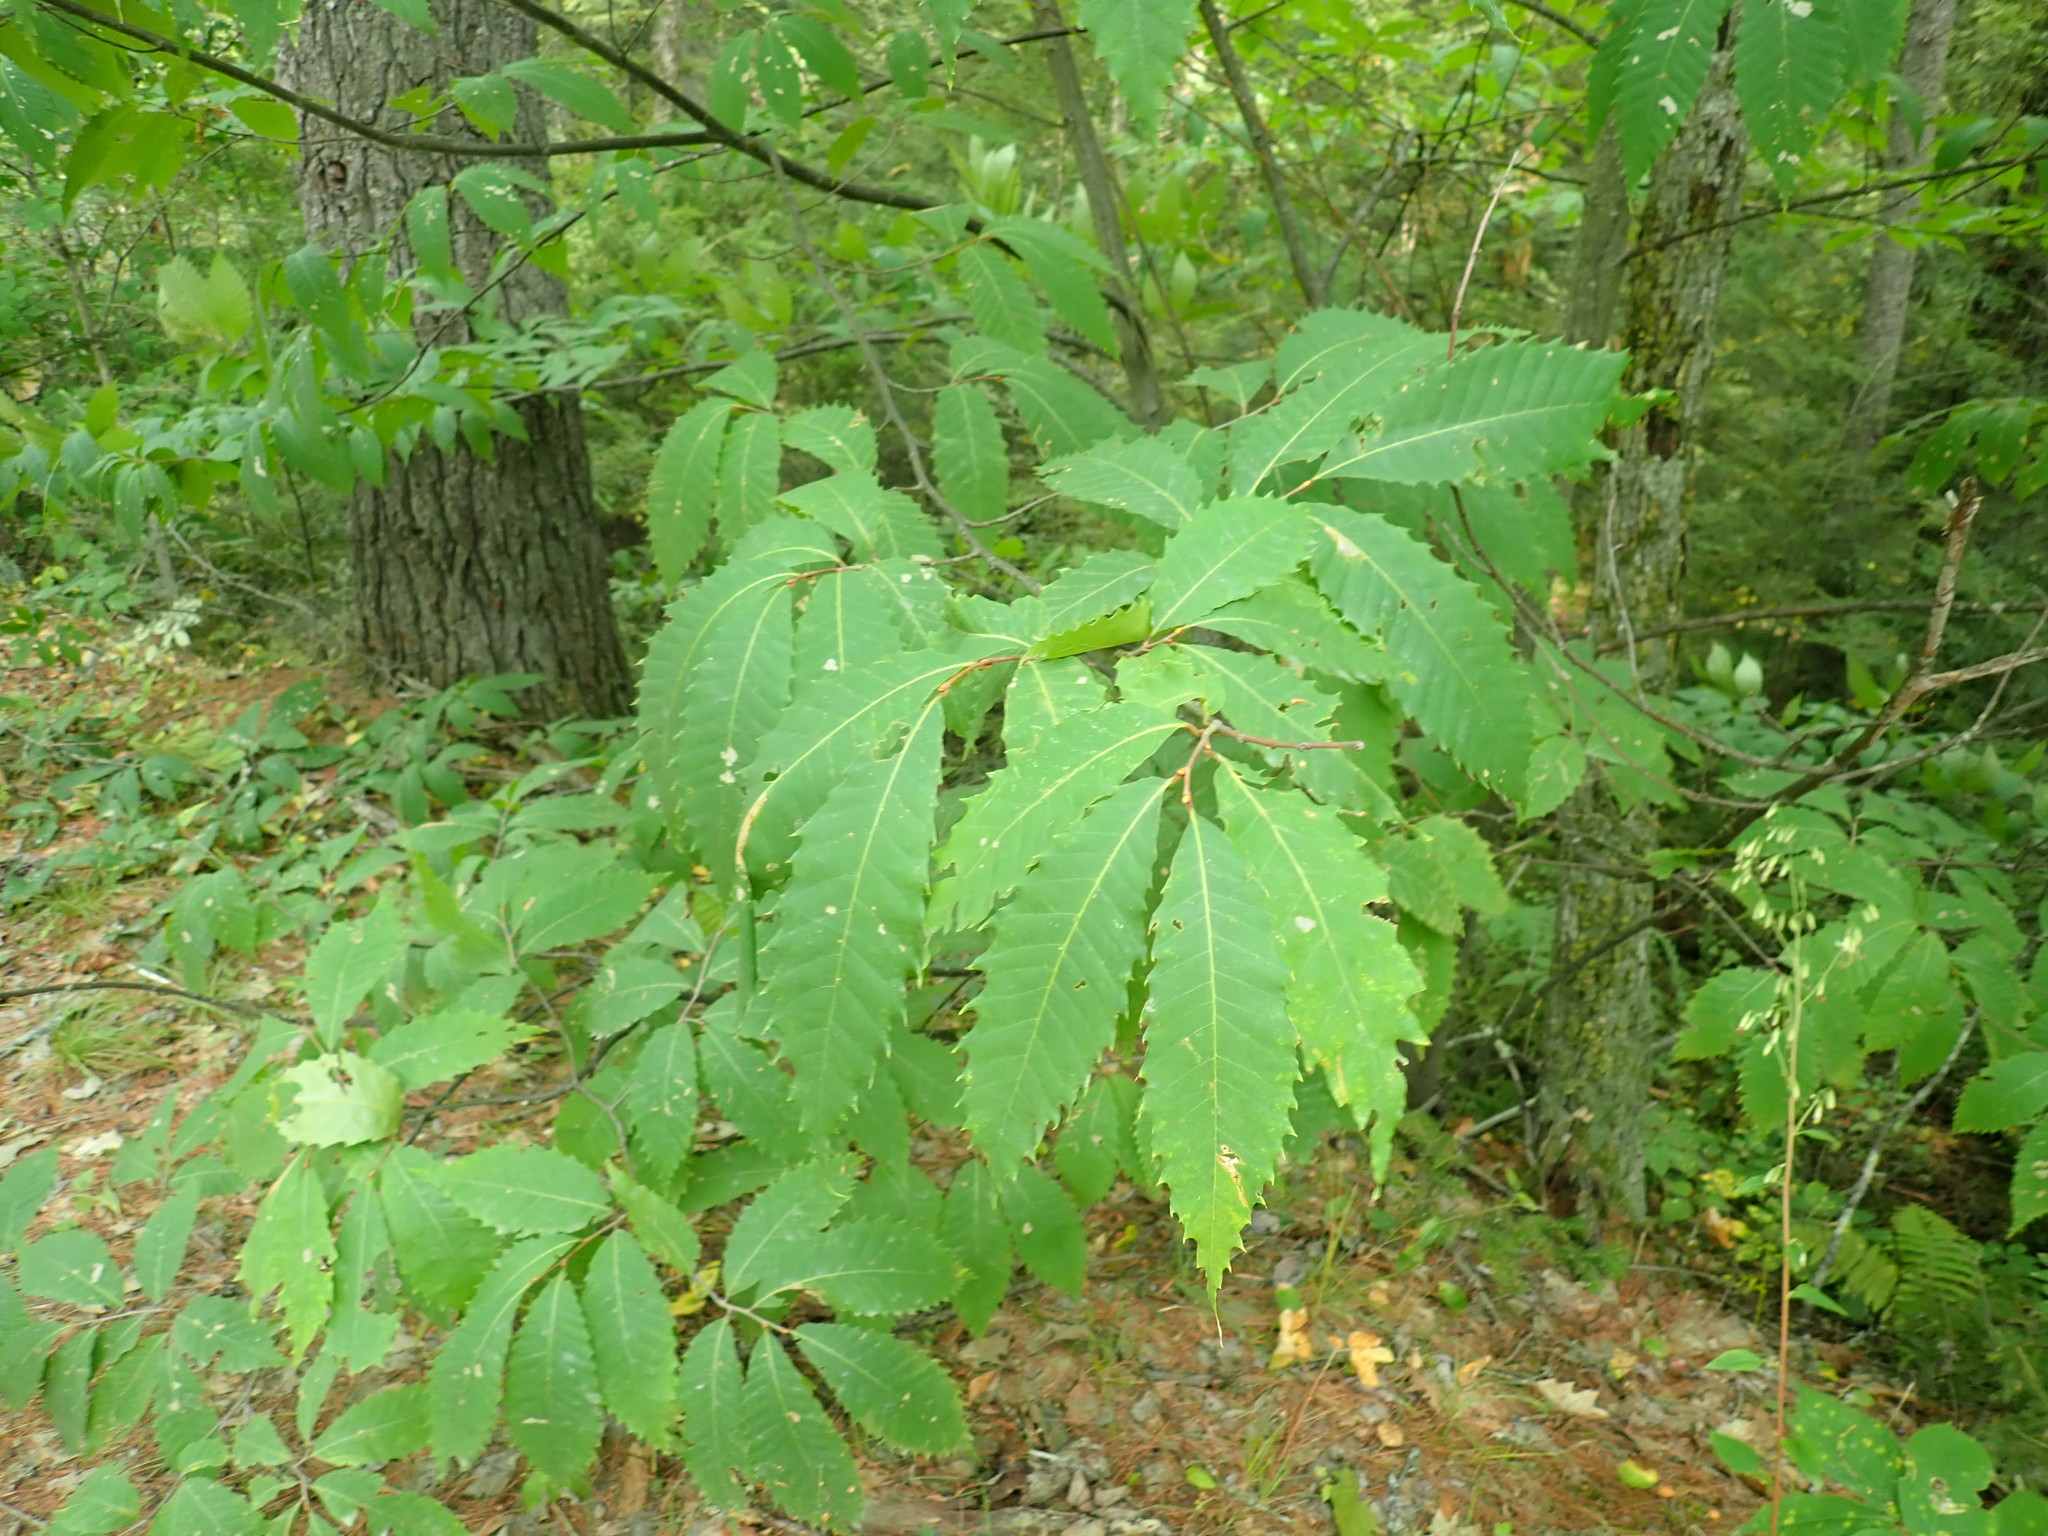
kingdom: Plantae
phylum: Tracheophyta
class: Magnoliopsida
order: Fagales
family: Fagaceae
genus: Castanea
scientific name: Castanea dentata
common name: American chestnut
